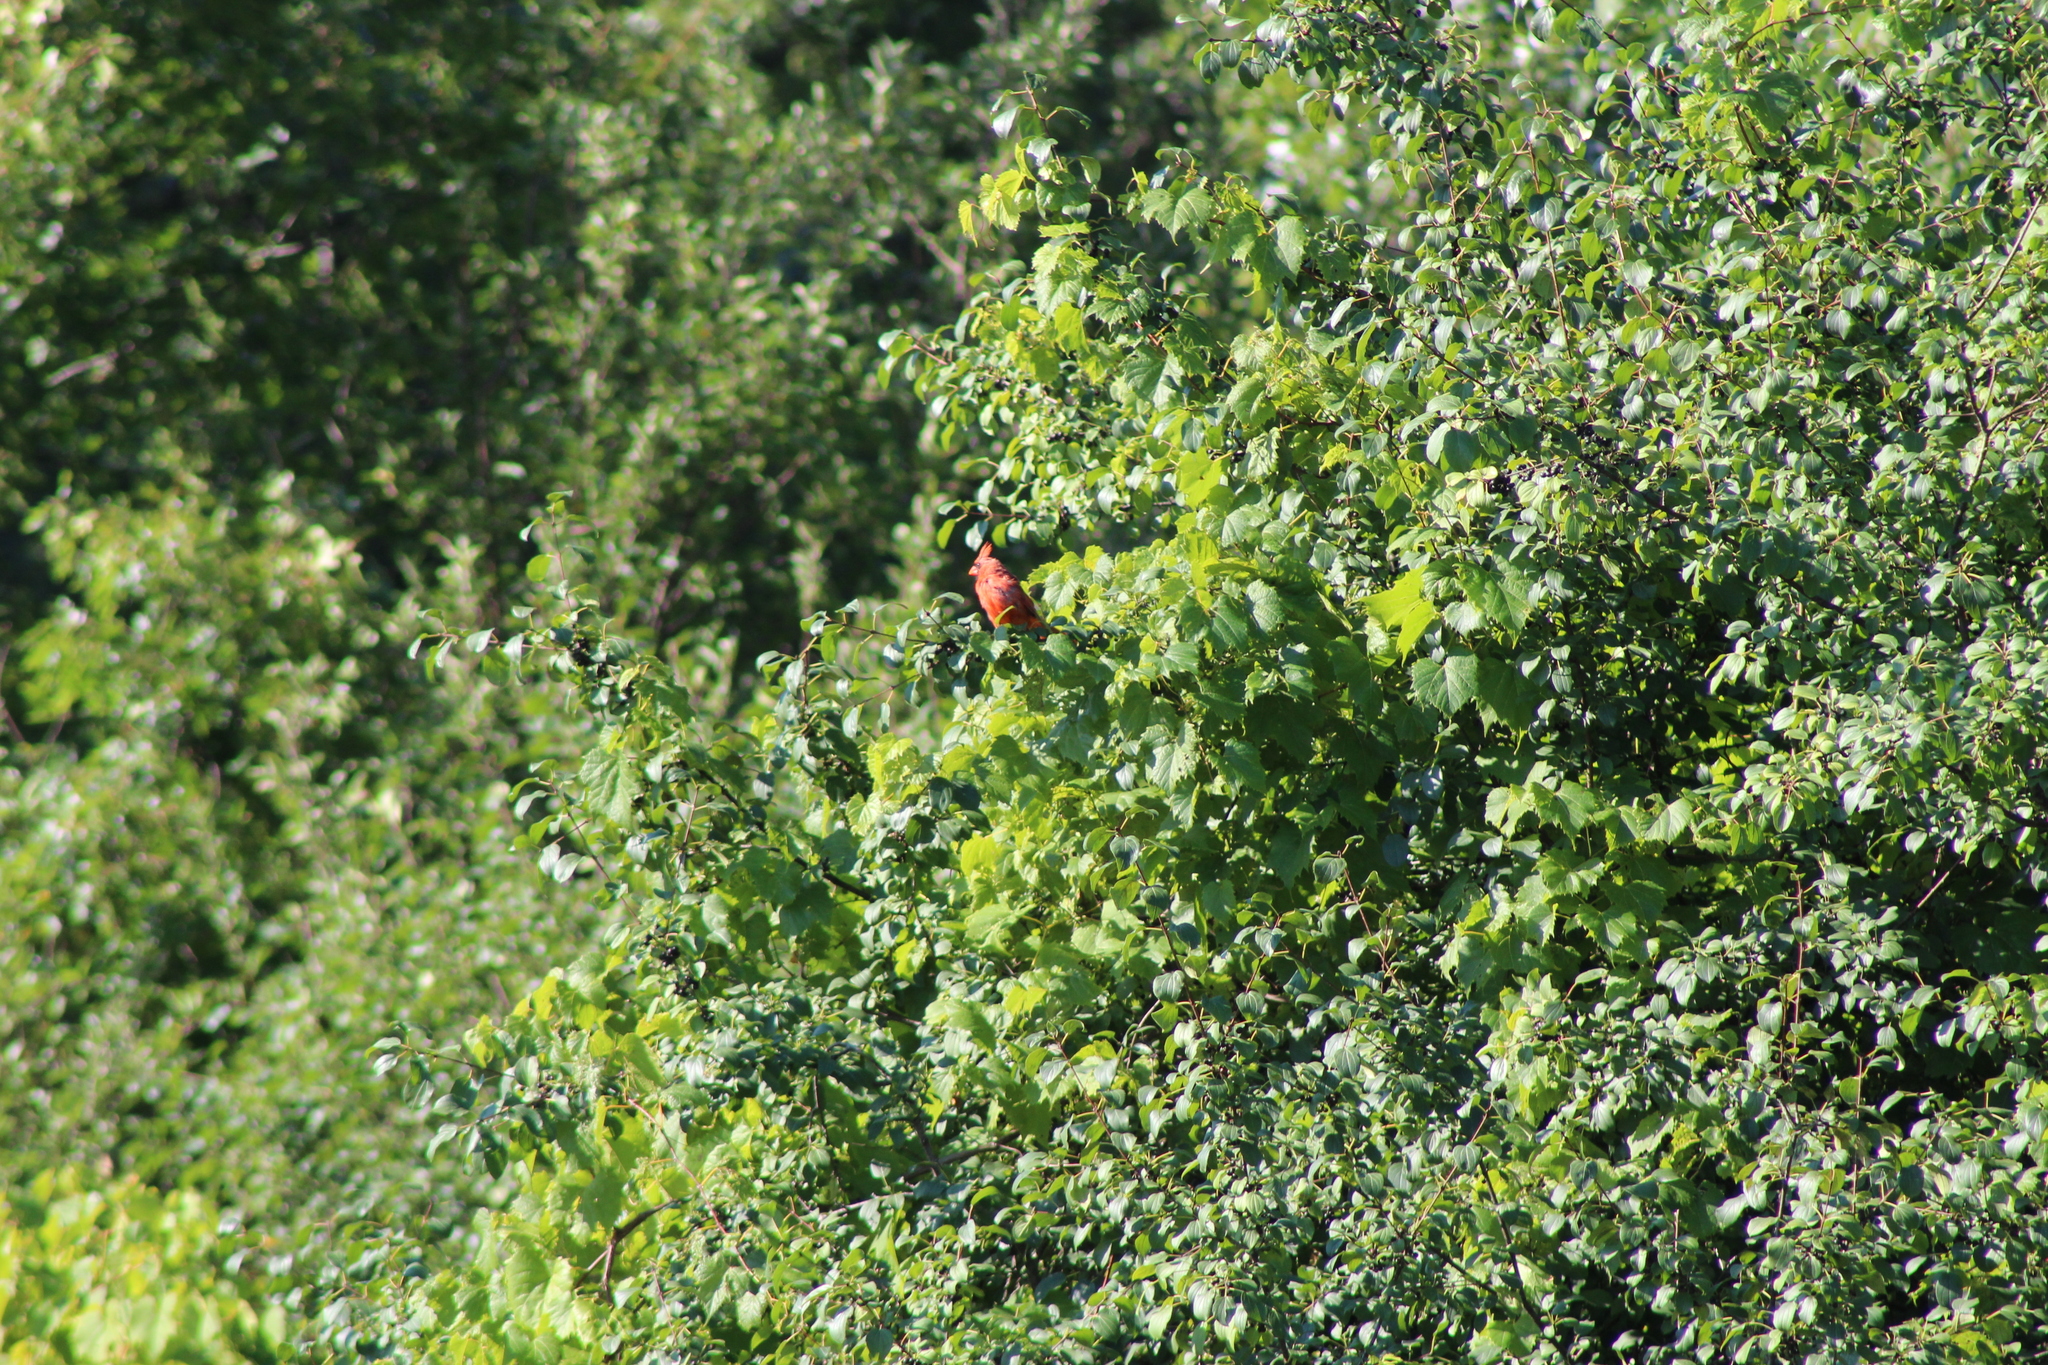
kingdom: Animalia
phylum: Chordata
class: Aves
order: Passeriformes
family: Cardinalidae
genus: Cardinalis
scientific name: Cardinalis cardinalis
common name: Northern cardinal
